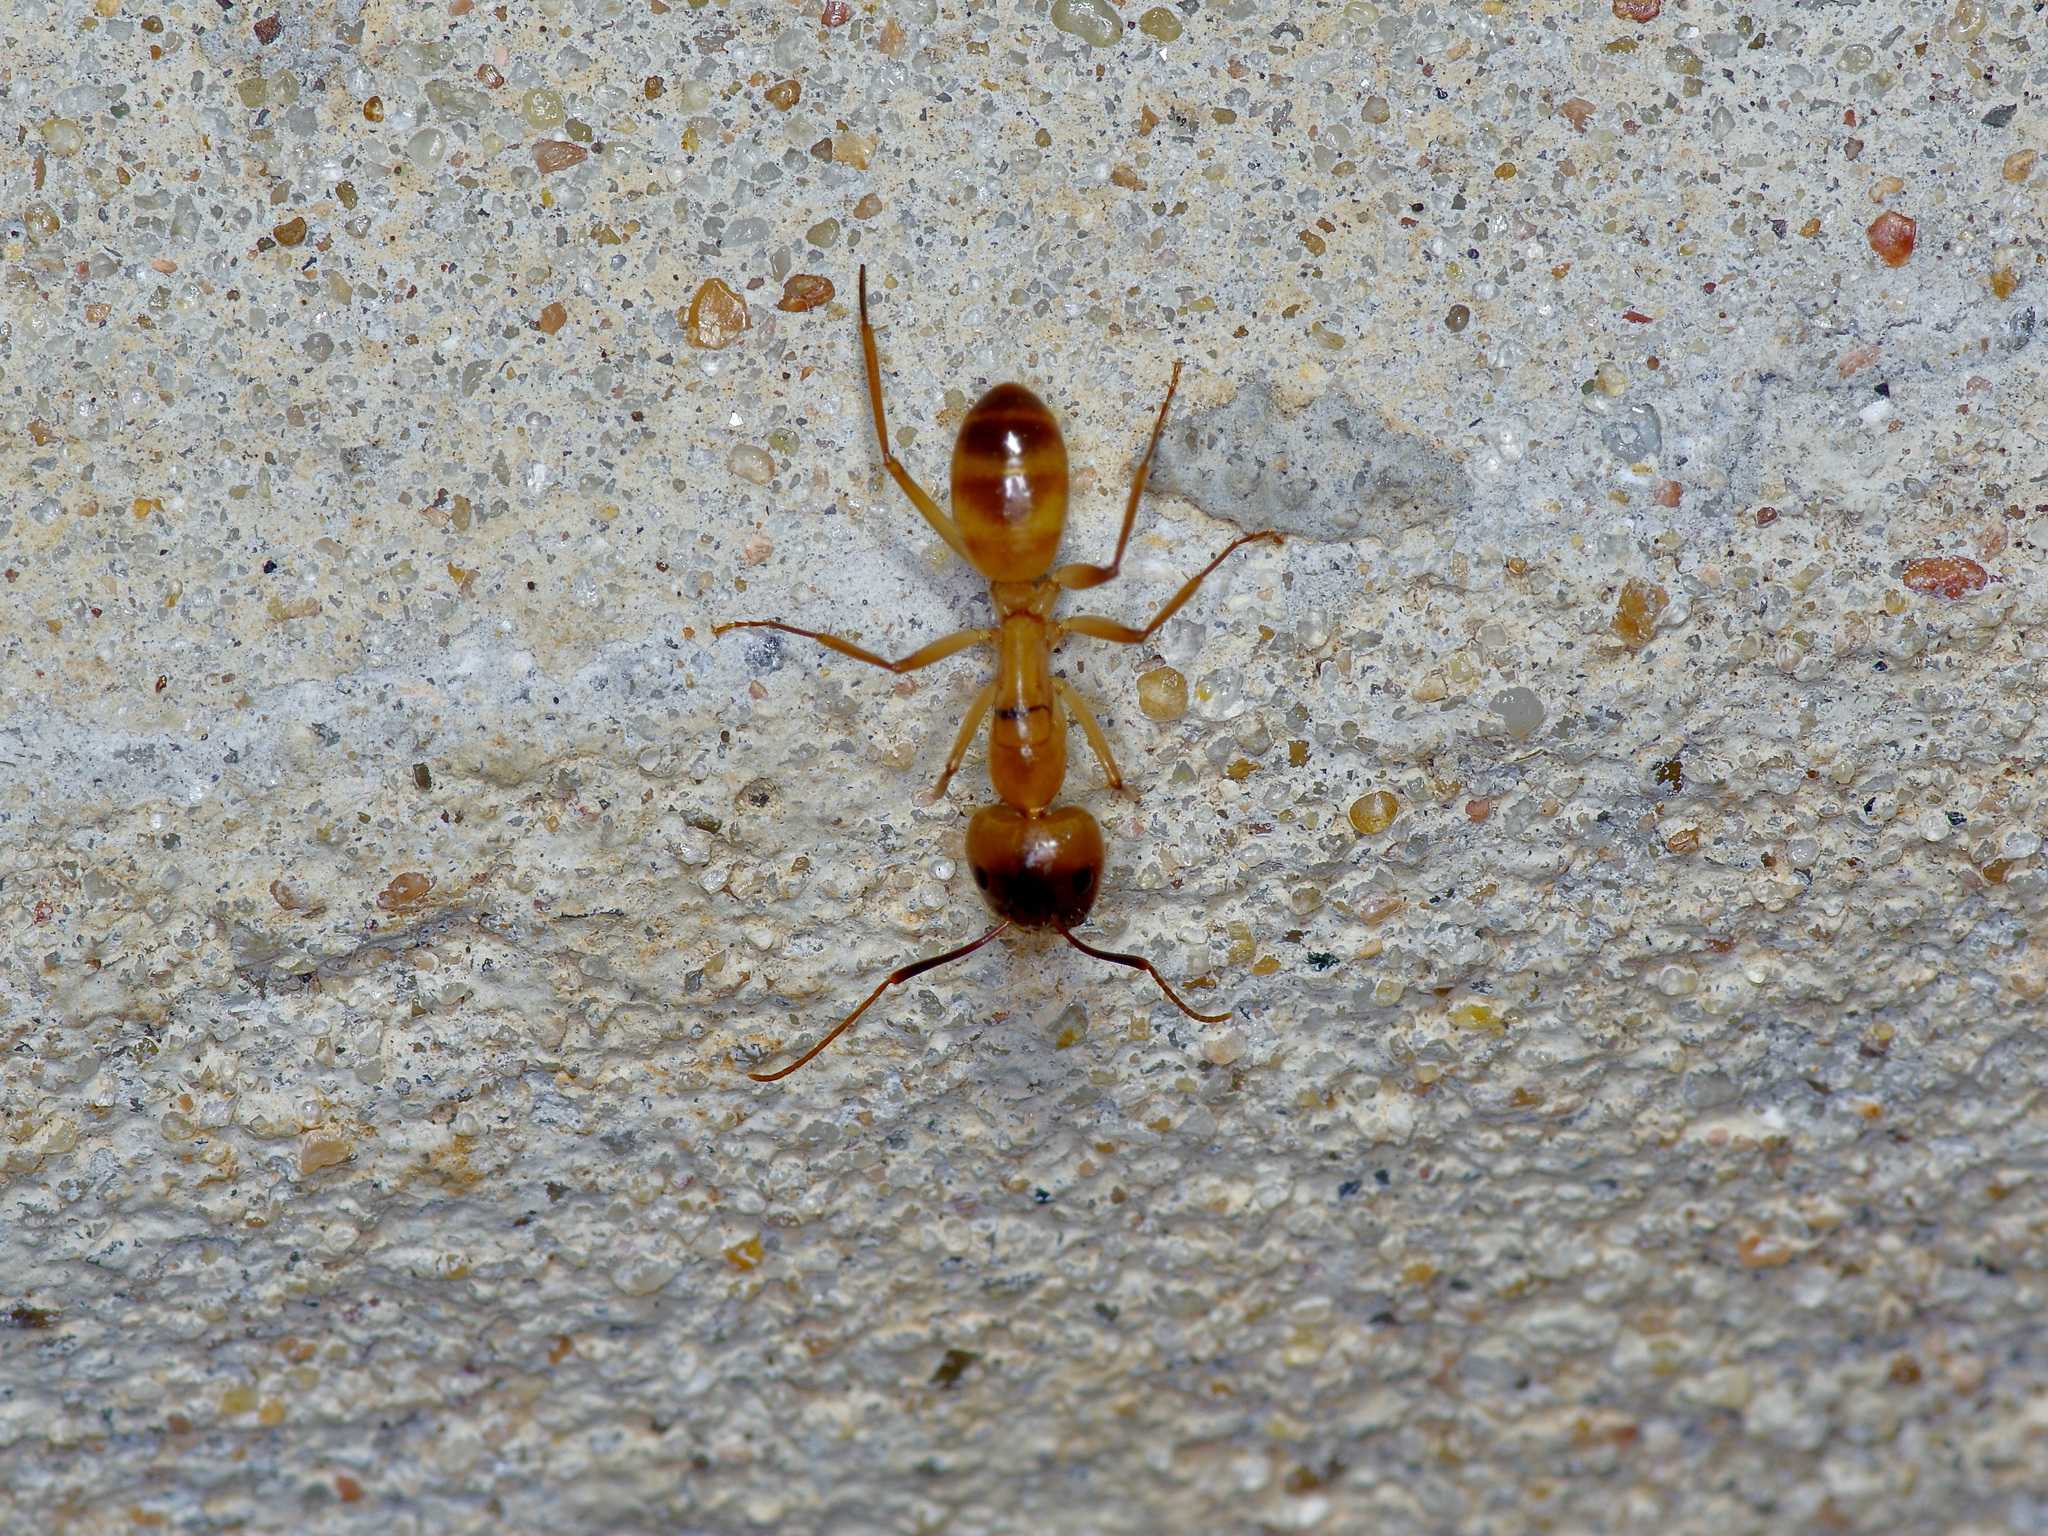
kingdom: Animalia
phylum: Arthropoda
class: Insecta
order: Hymenoptera
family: Formicidae
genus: Camponotus
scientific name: Camponotus festinatus
